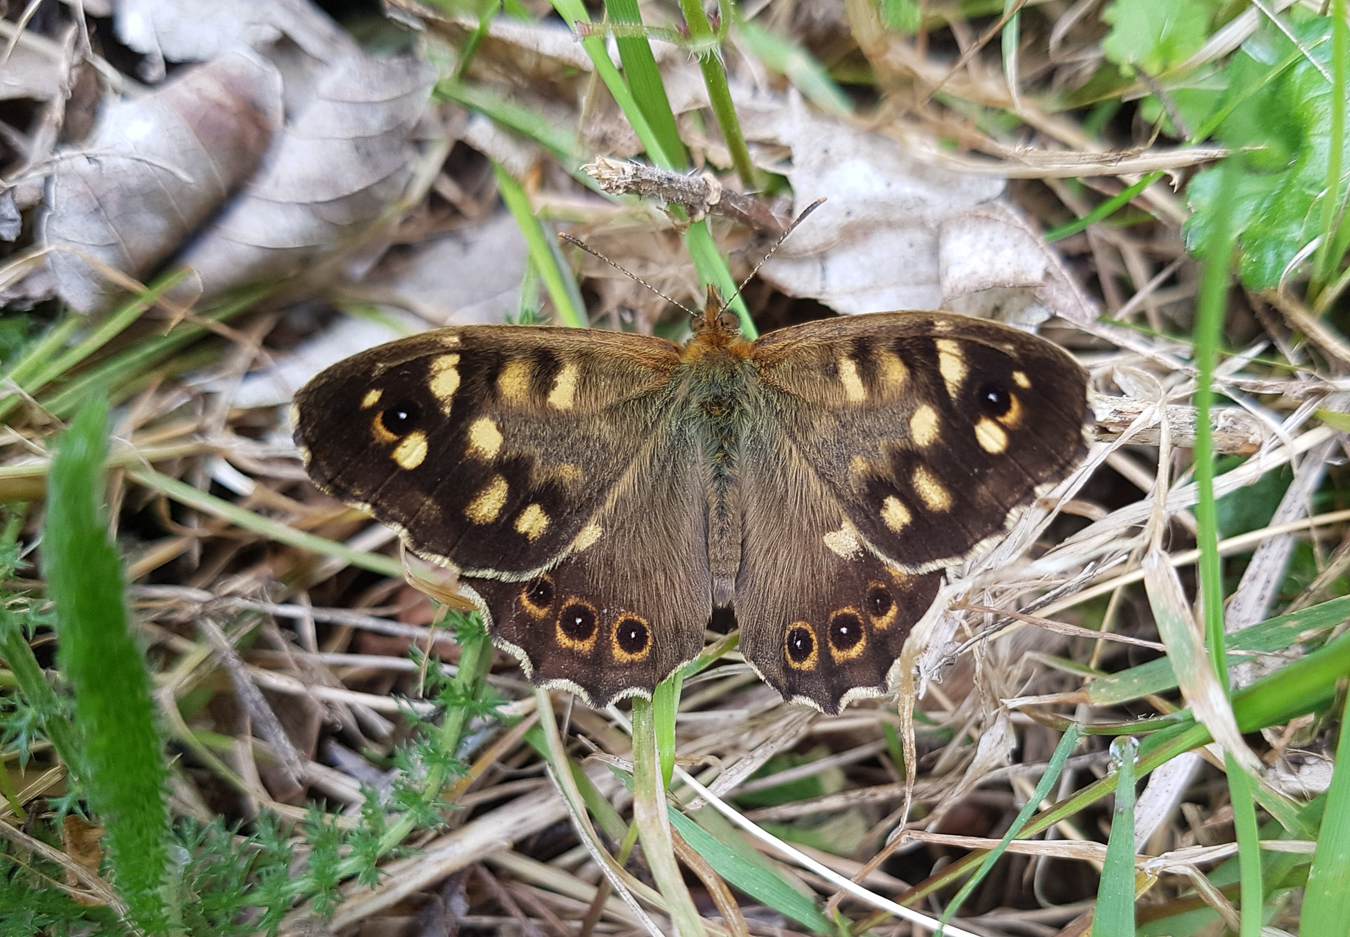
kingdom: Animalia
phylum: Arthropoda
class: Insecta
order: Lepidoptera
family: Nymphalidae
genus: Pararge
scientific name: Pararge aegeria
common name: Speckled wood
